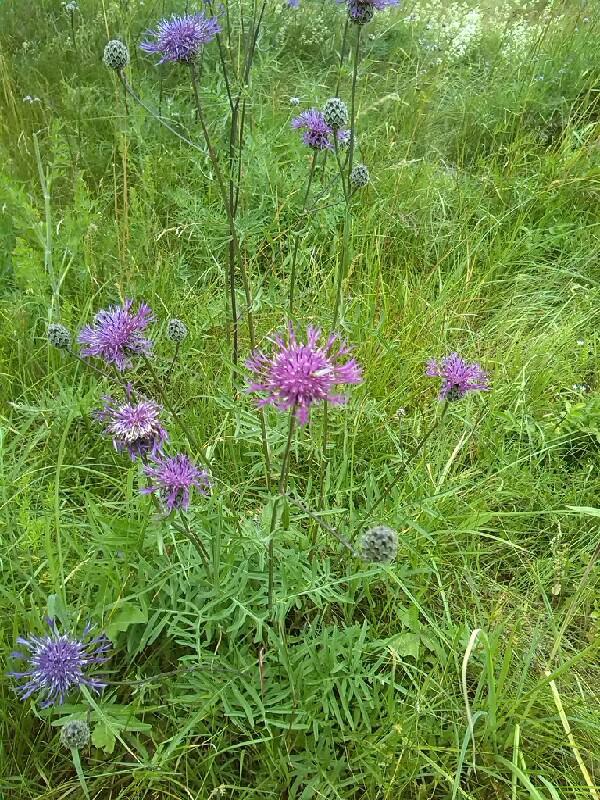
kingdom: Plantae
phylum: Tracheophyta
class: Magnoliopsida
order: Asterales
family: Asteraceae
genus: Centaurea
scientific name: Centaurea scabiosa
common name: Greater knapweed
